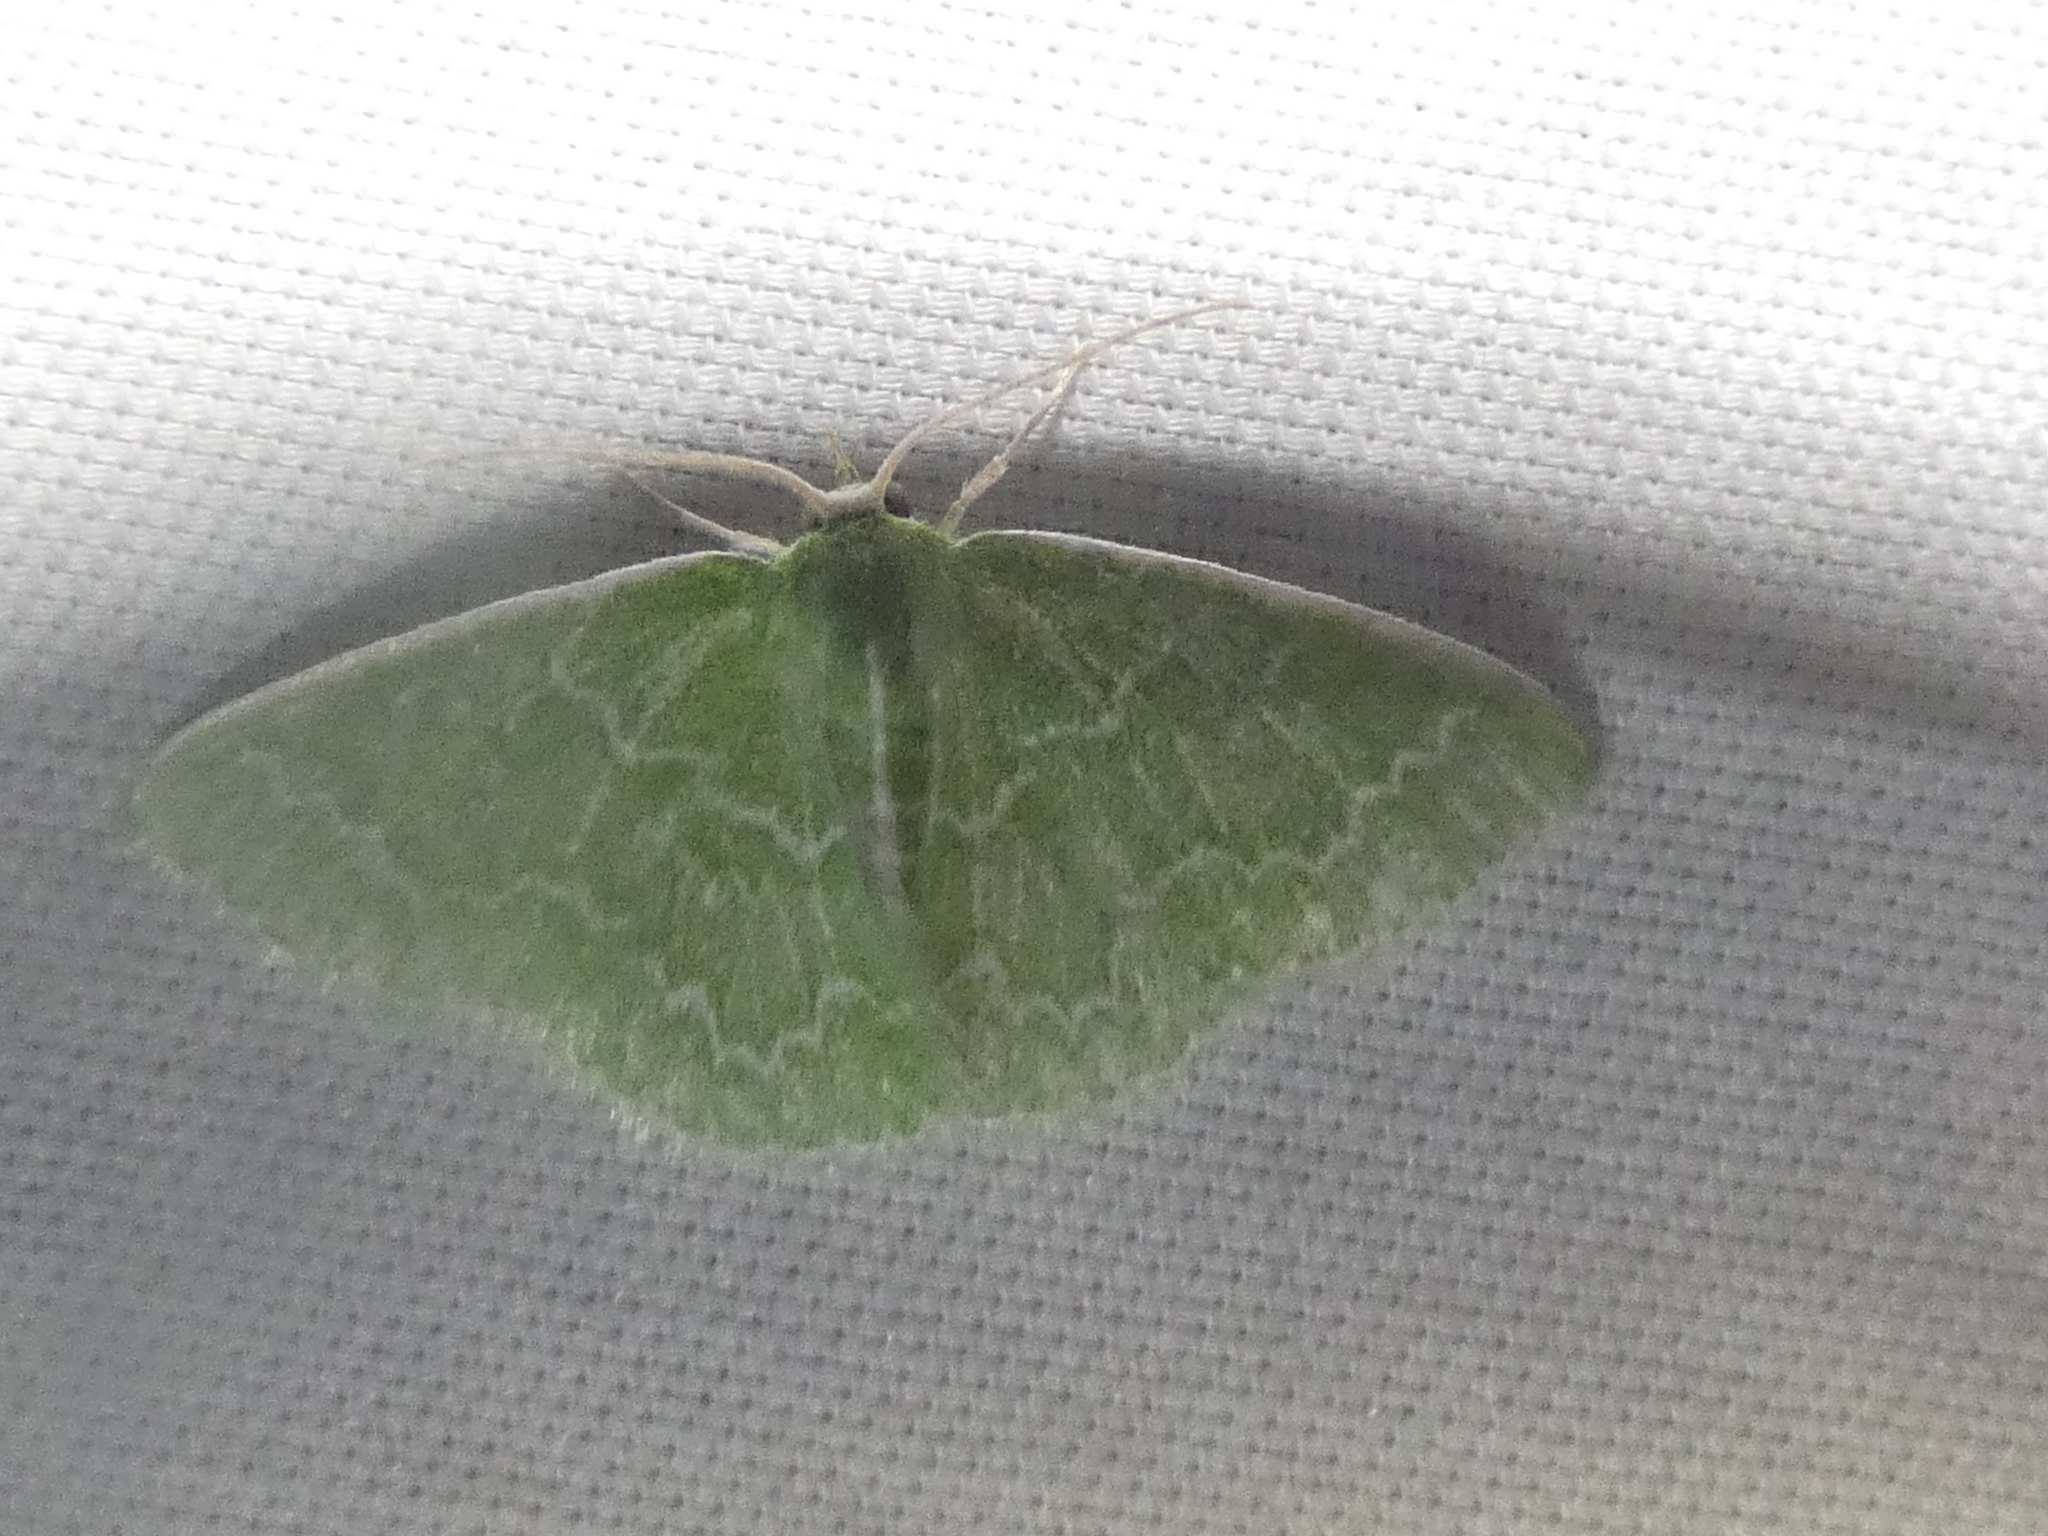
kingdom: Animalia
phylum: Arthropoda
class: Insecta
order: Lepidoptera
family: Geometridae
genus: Synchlora
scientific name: Synchlora frondaria
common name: Southern emerald
